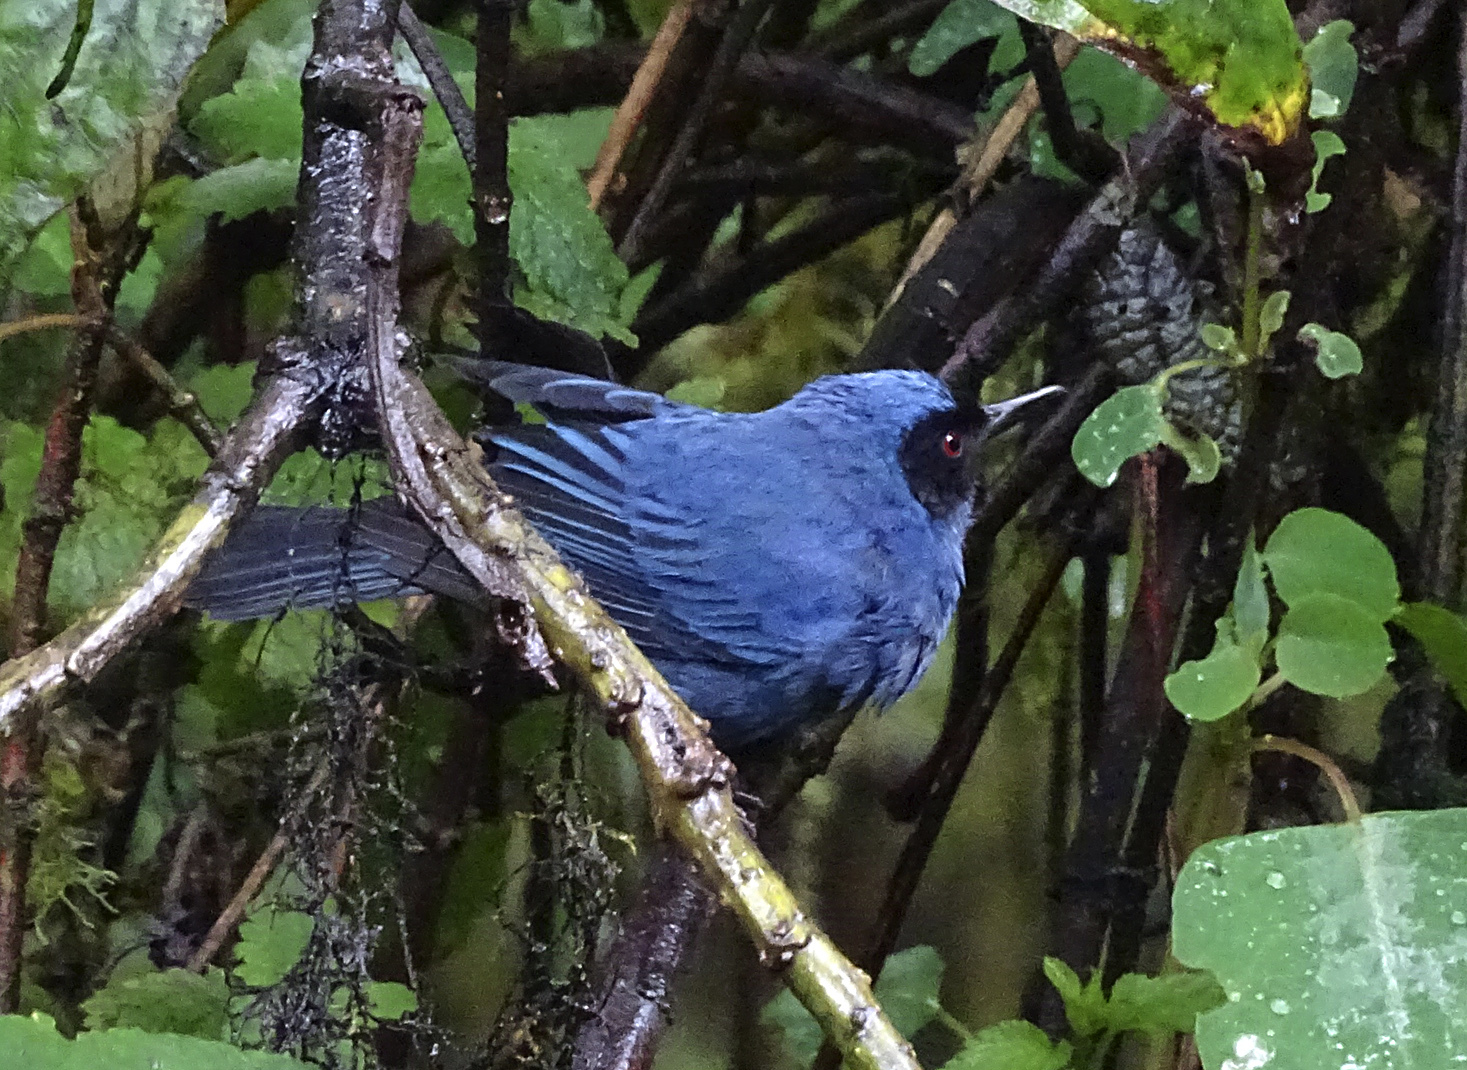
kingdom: Animalia
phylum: Chordata
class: Aves
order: Passeriformes
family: Thraupidae
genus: Diglossa
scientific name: Diglossa cyanea
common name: Masked flowerpiercer
